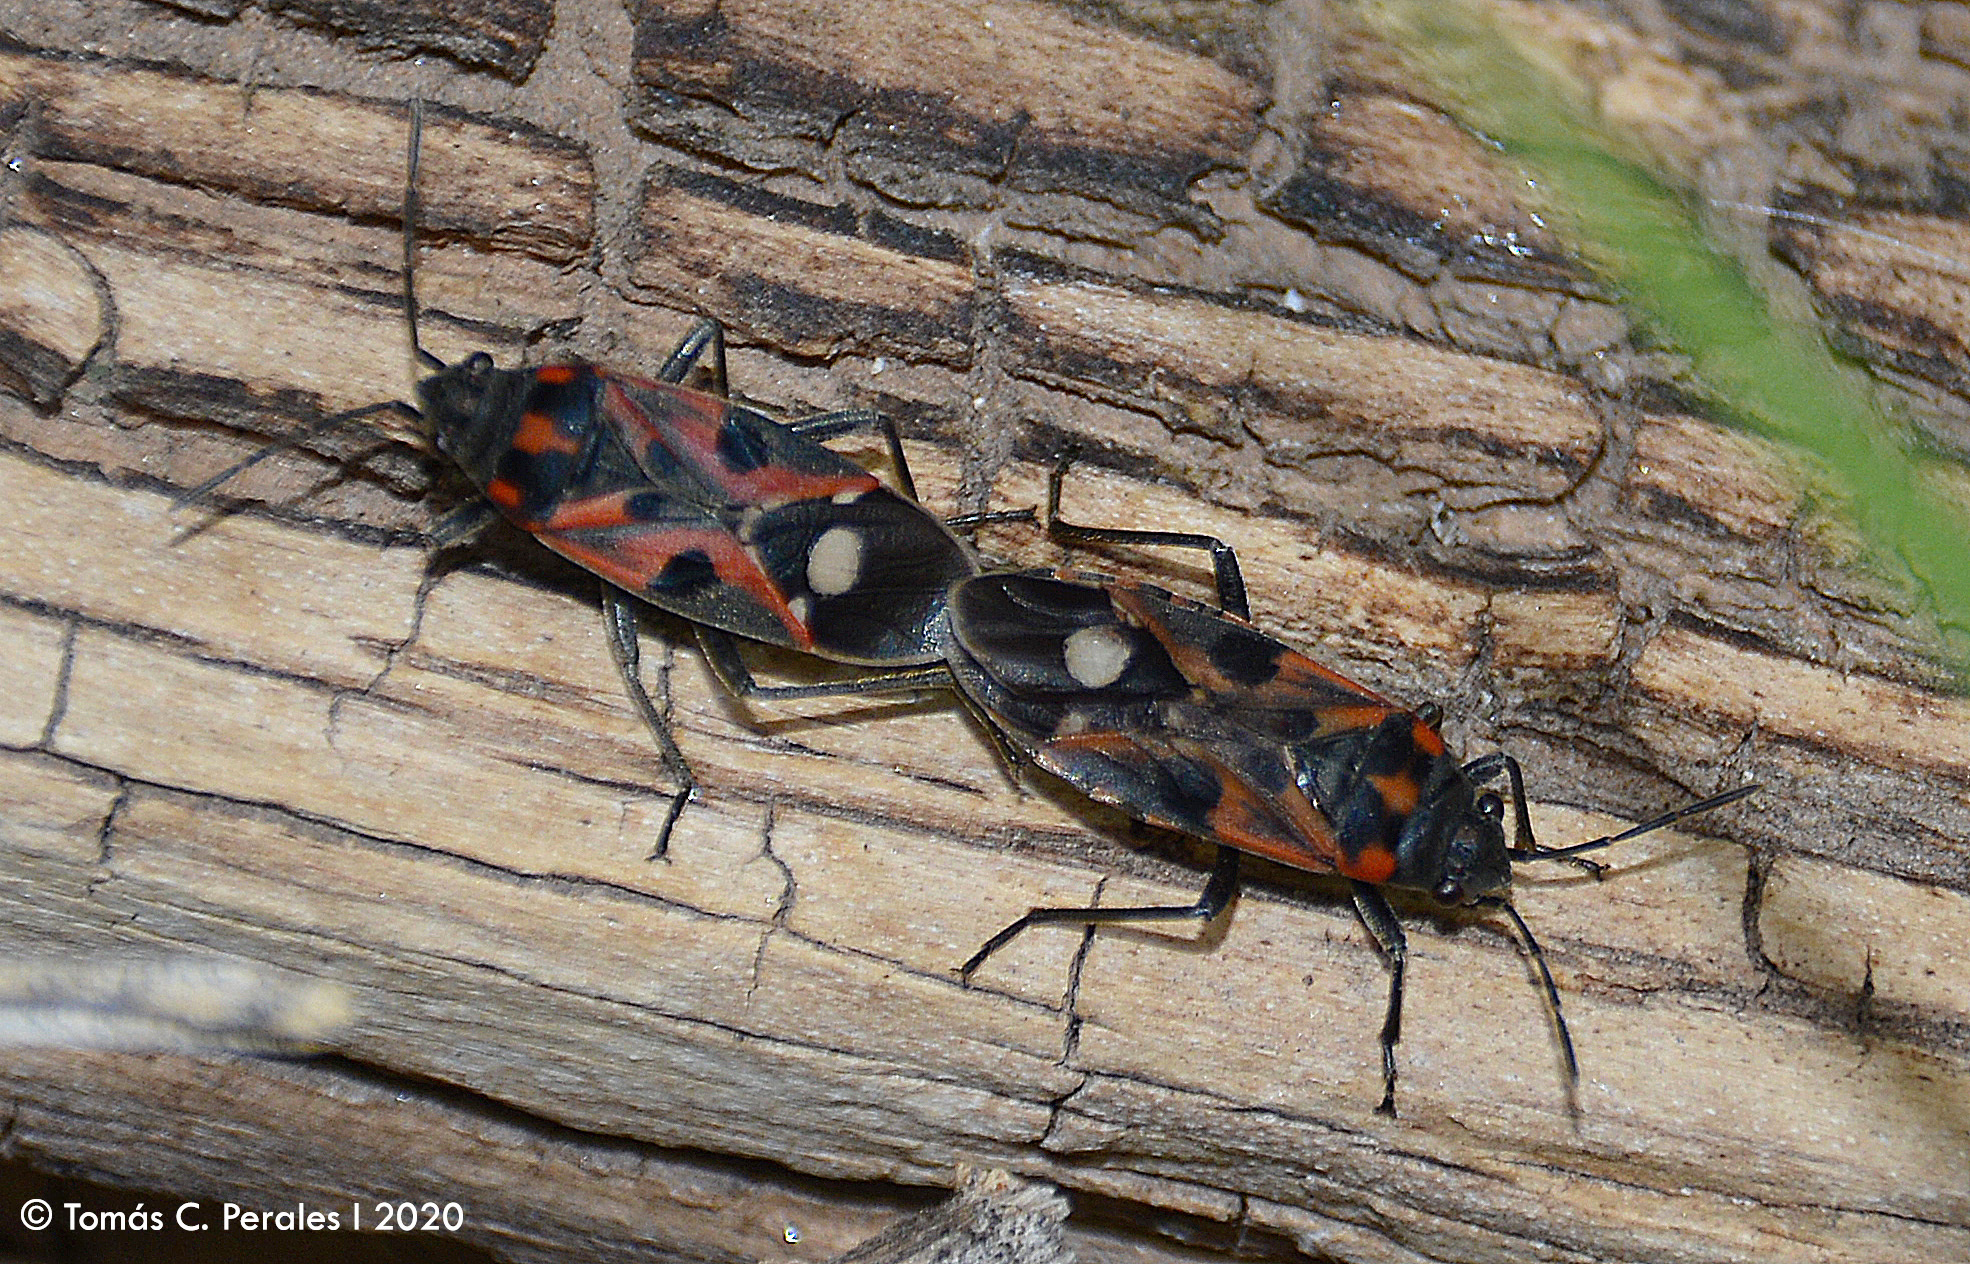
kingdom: Animalia
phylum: Arthropoda
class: Insecta
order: Hemiptera
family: Lygaeidae
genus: Lygaeus
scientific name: Lygaeus alboornatus
